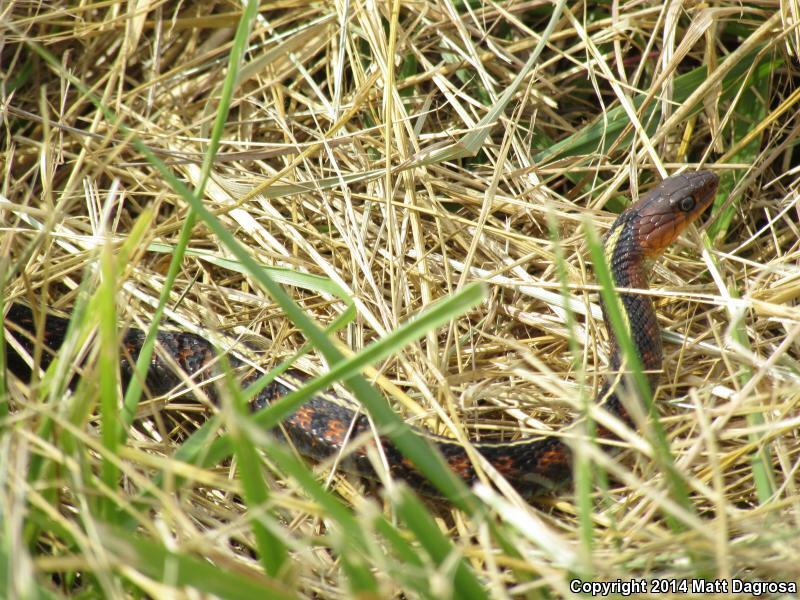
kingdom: Animalia
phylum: Chordata
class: Squamata
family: Colubridae
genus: Thamnophis
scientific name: Thamnophis sirtalis
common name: Common garter snake
